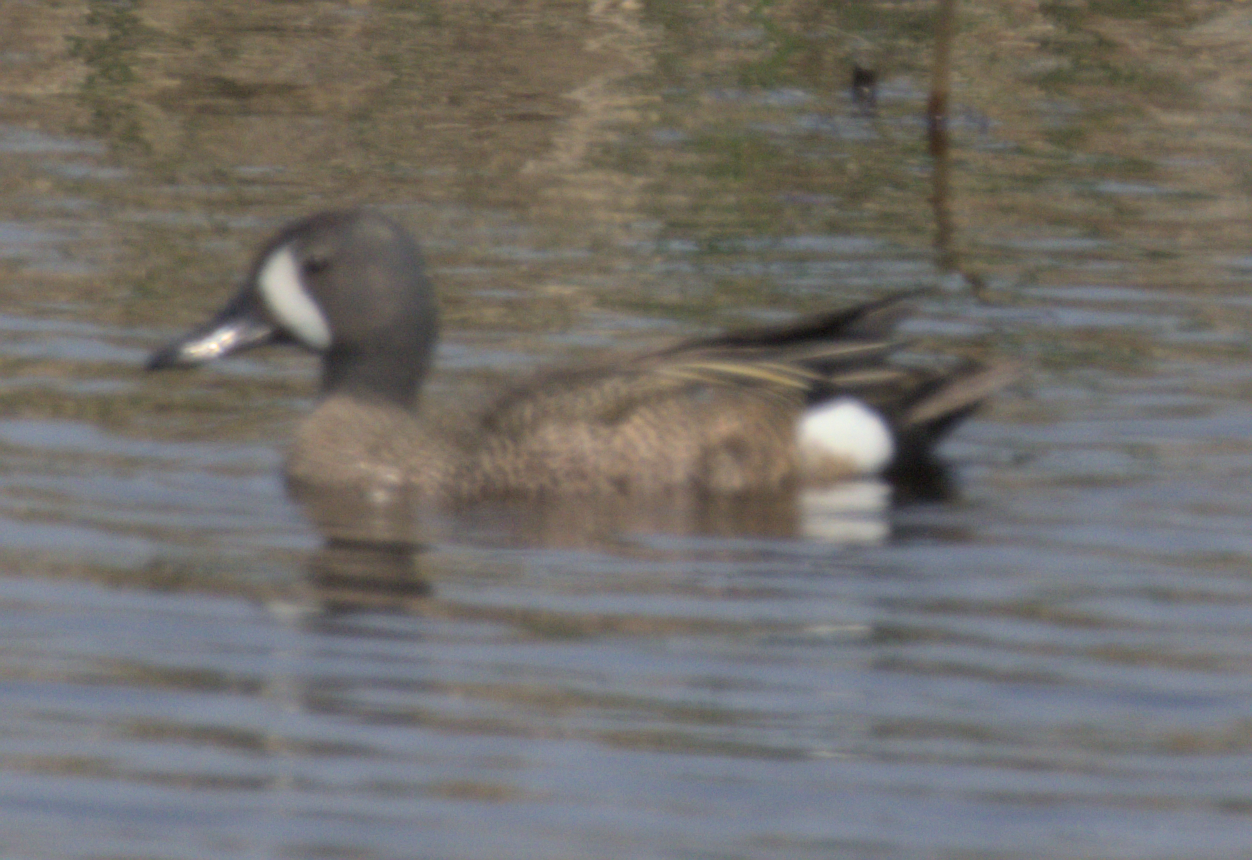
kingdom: Animalia
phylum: Chordata
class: Aves
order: Anseriformes
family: Anatidae
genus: Spatula
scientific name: Spatula discors
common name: Blue-winged teal
